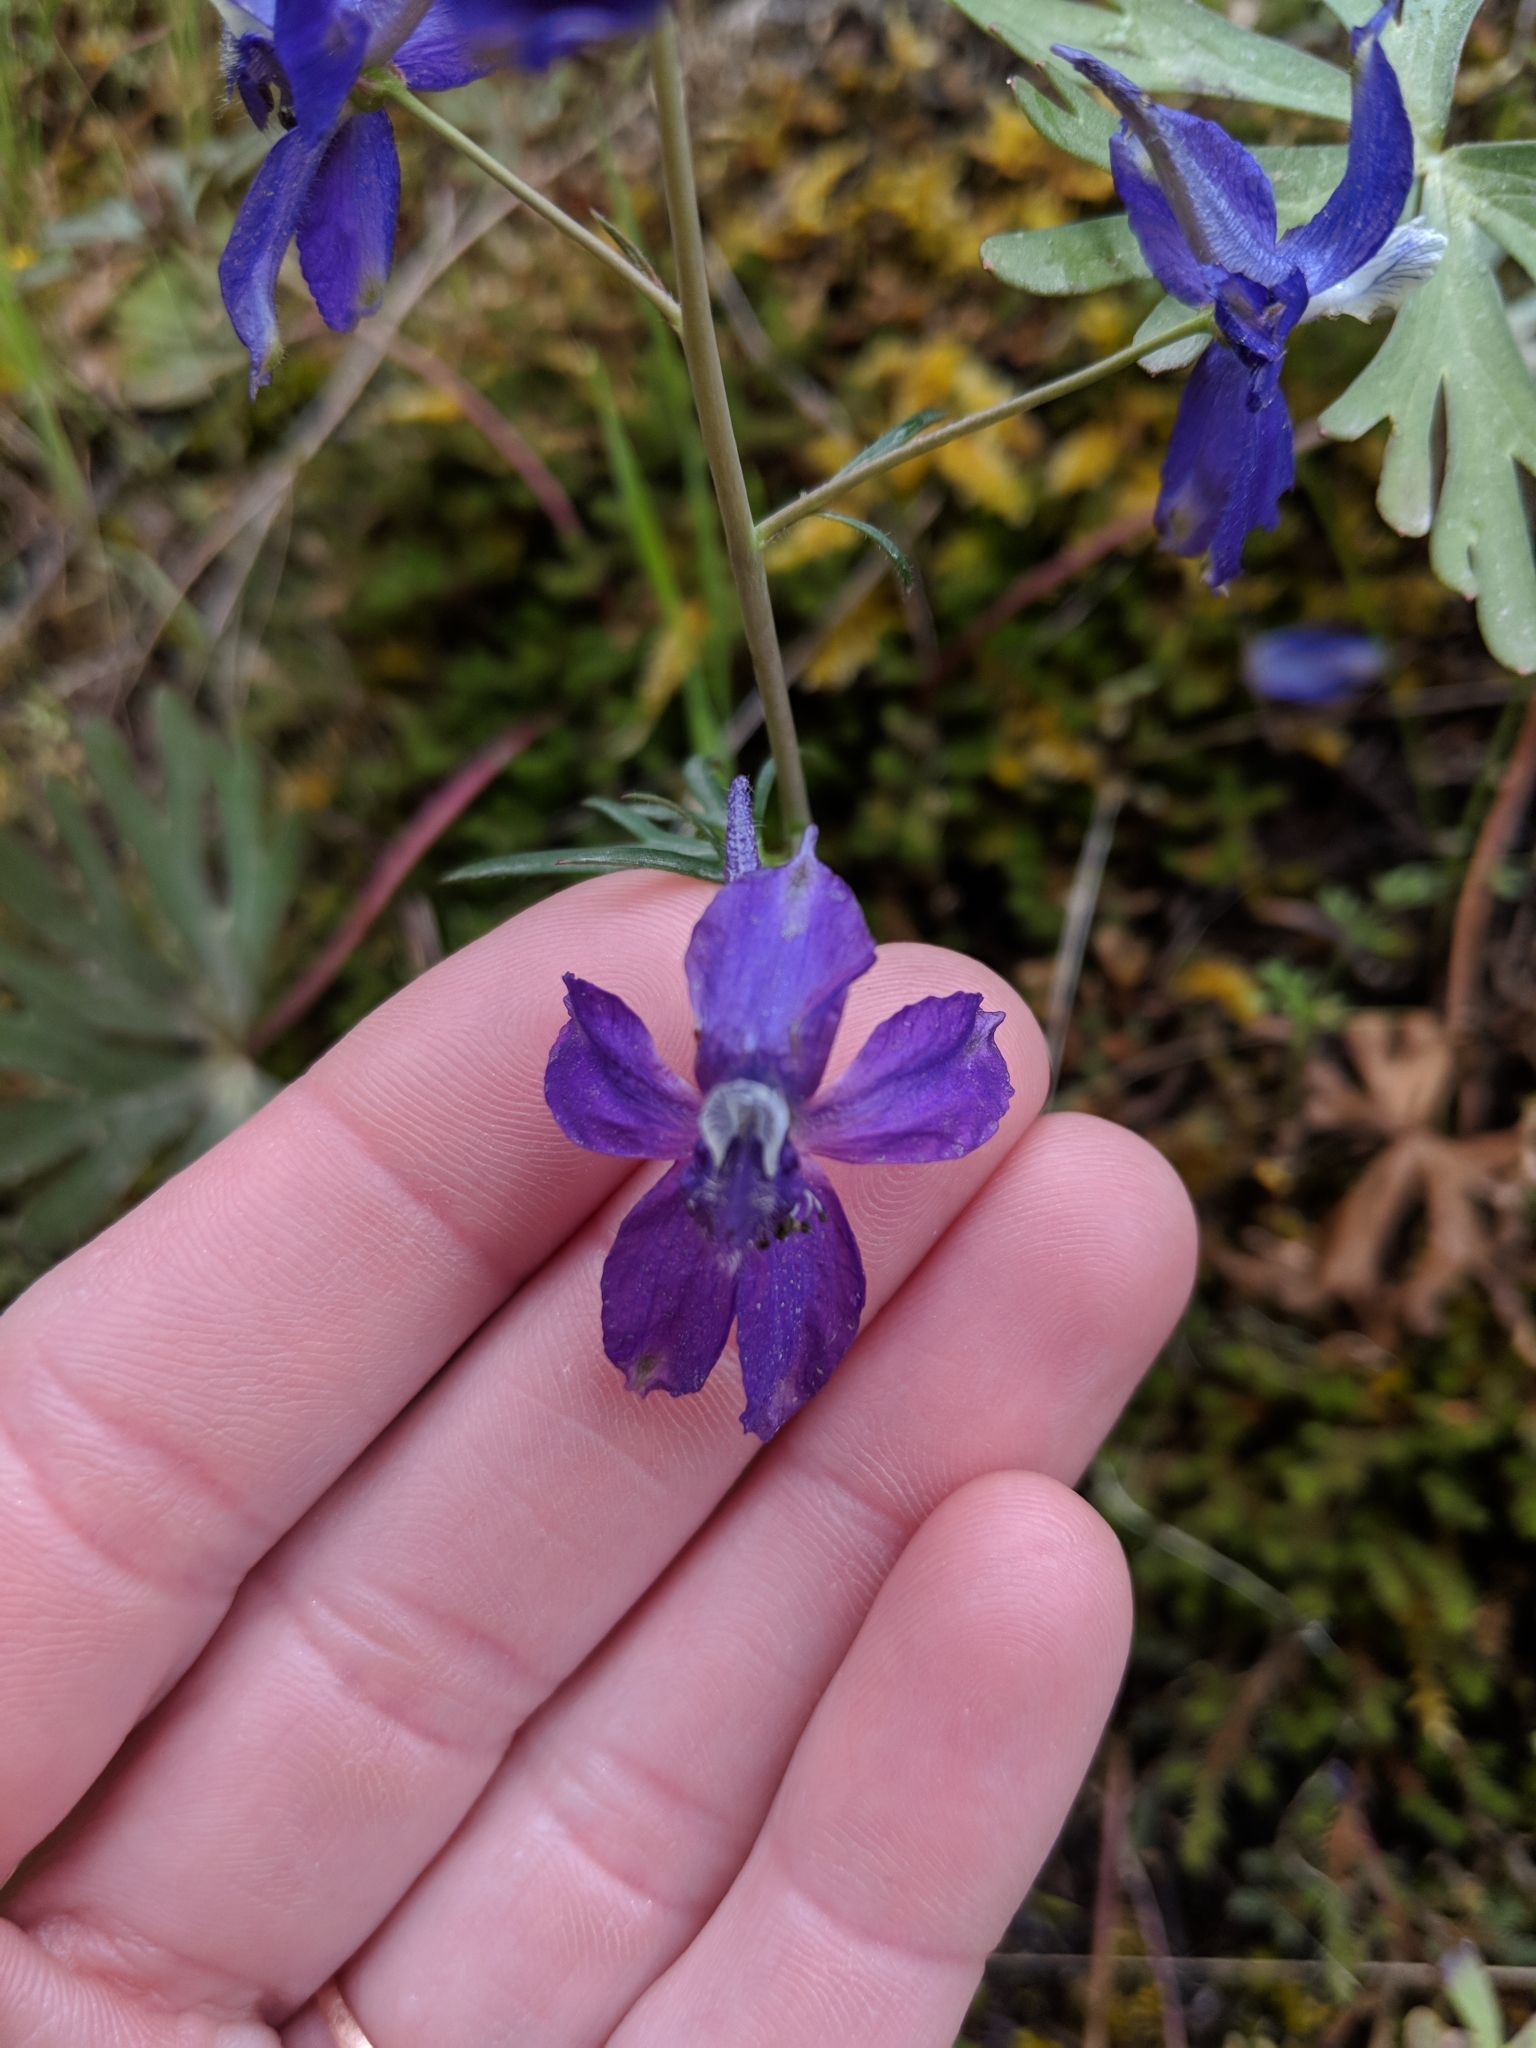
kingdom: Plantae
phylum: Tracheophyta
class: Magnoliopsida
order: Ranunculales
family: Ranunculaceae
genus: Delphinium
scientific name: Delphinium nuttallianum
